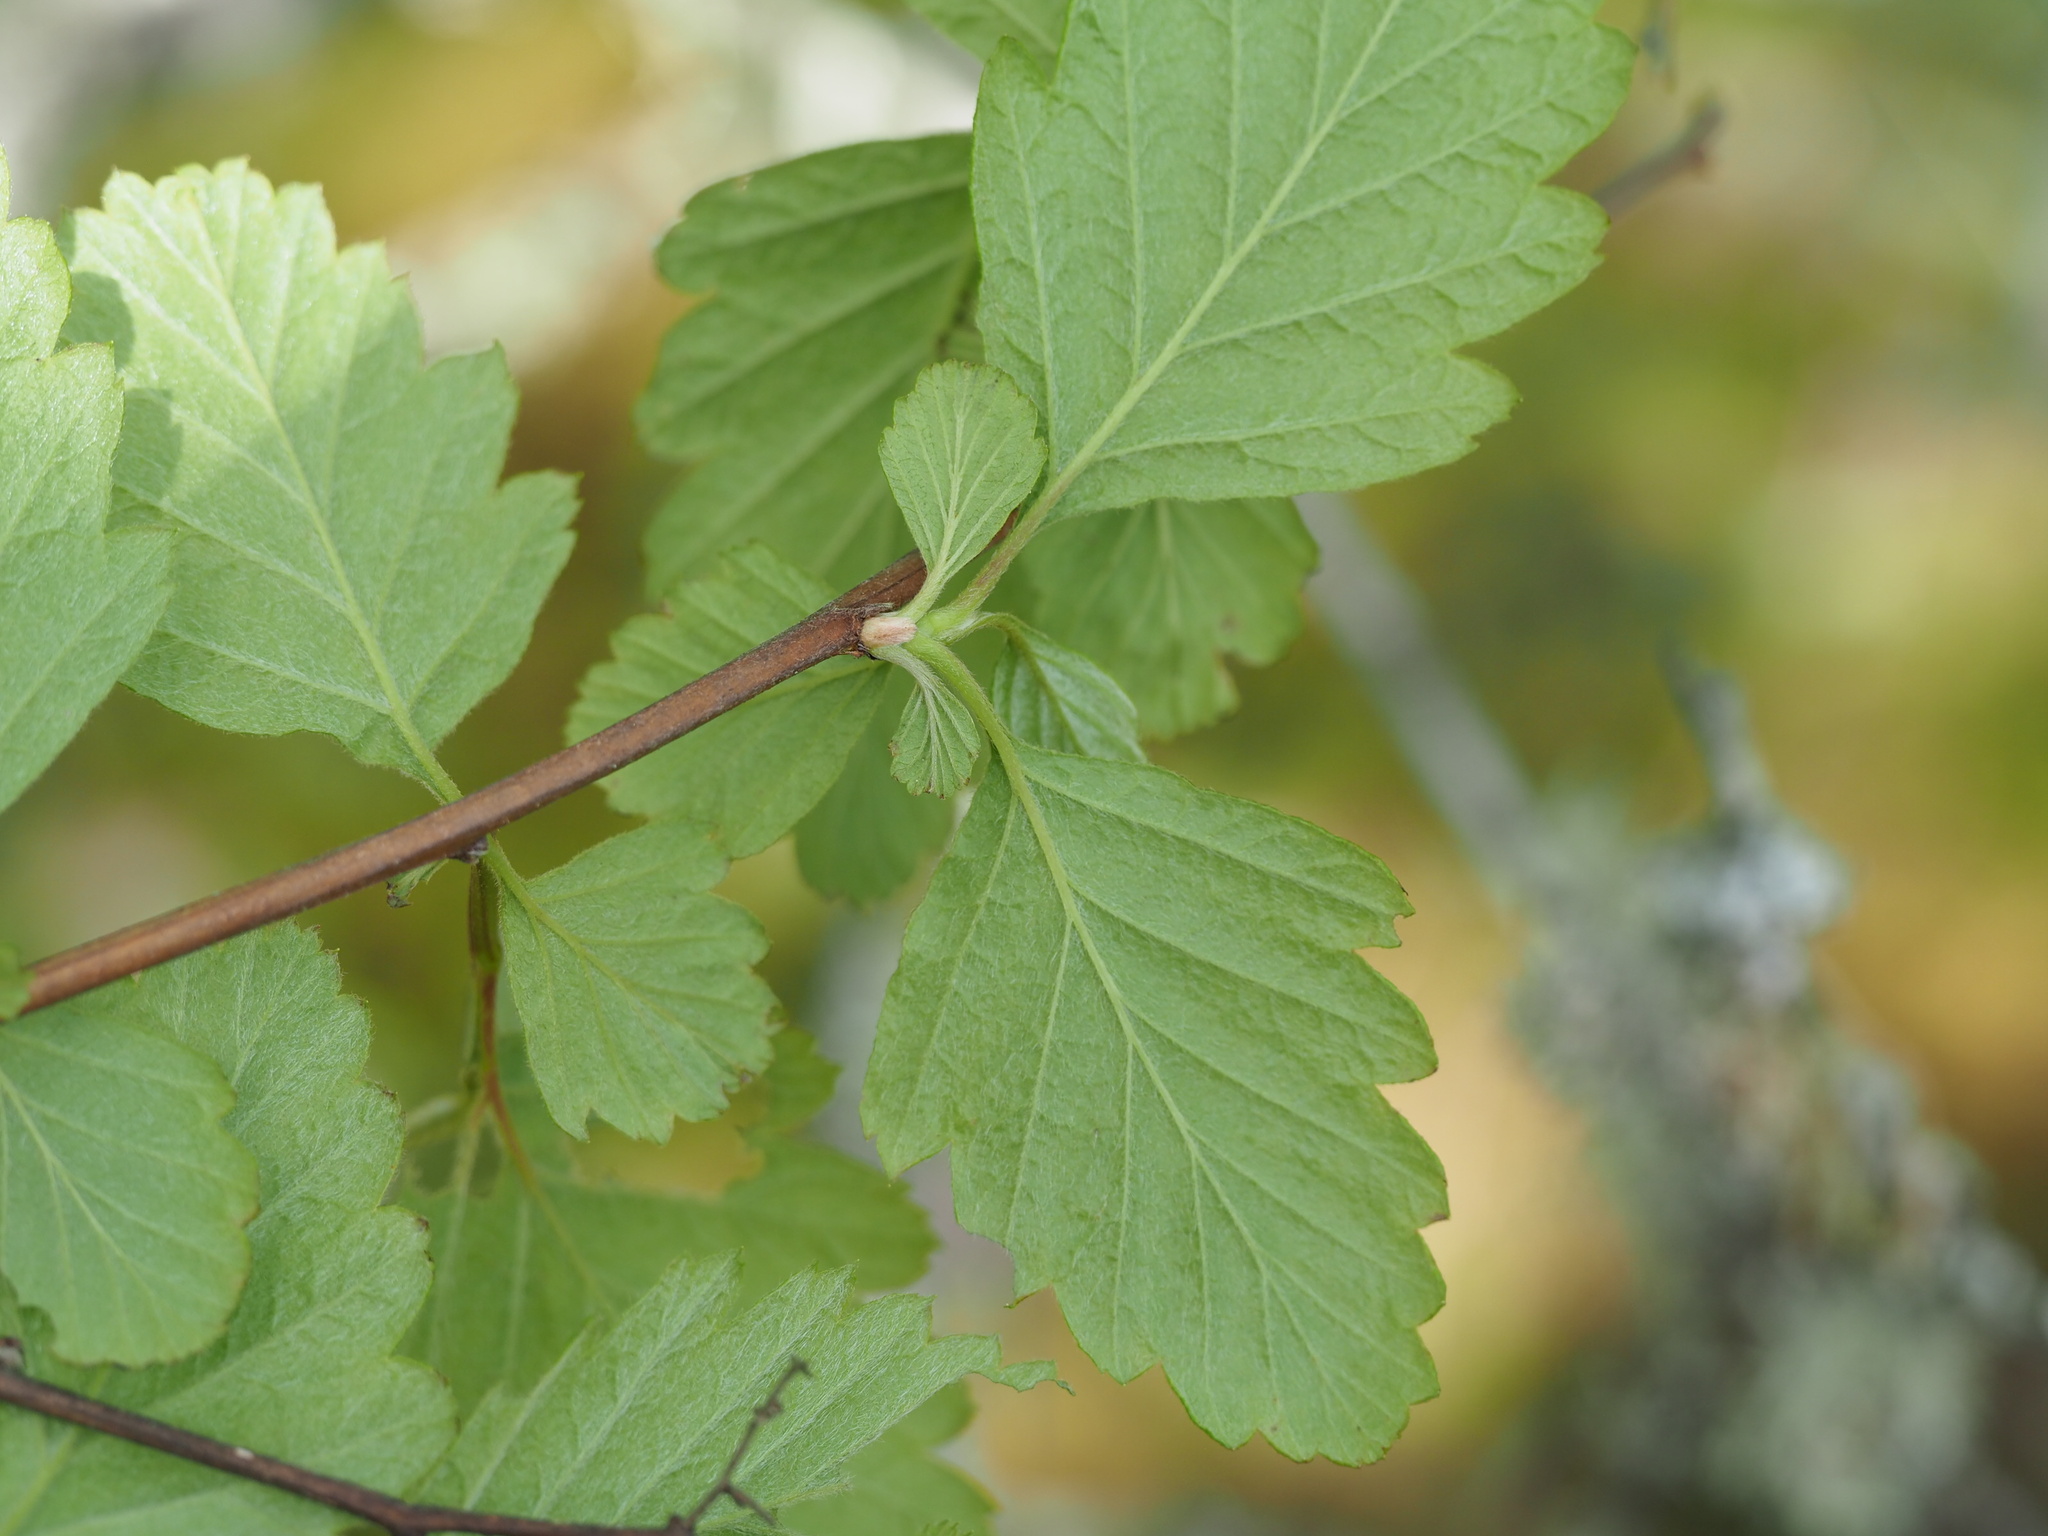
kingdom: Plantae
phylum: Tracheophyta
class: Magnoliopsida
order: Rosales
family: Rosaceae
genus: Holodiscus
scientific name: Holodiscus discolor
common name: Oceanspray
